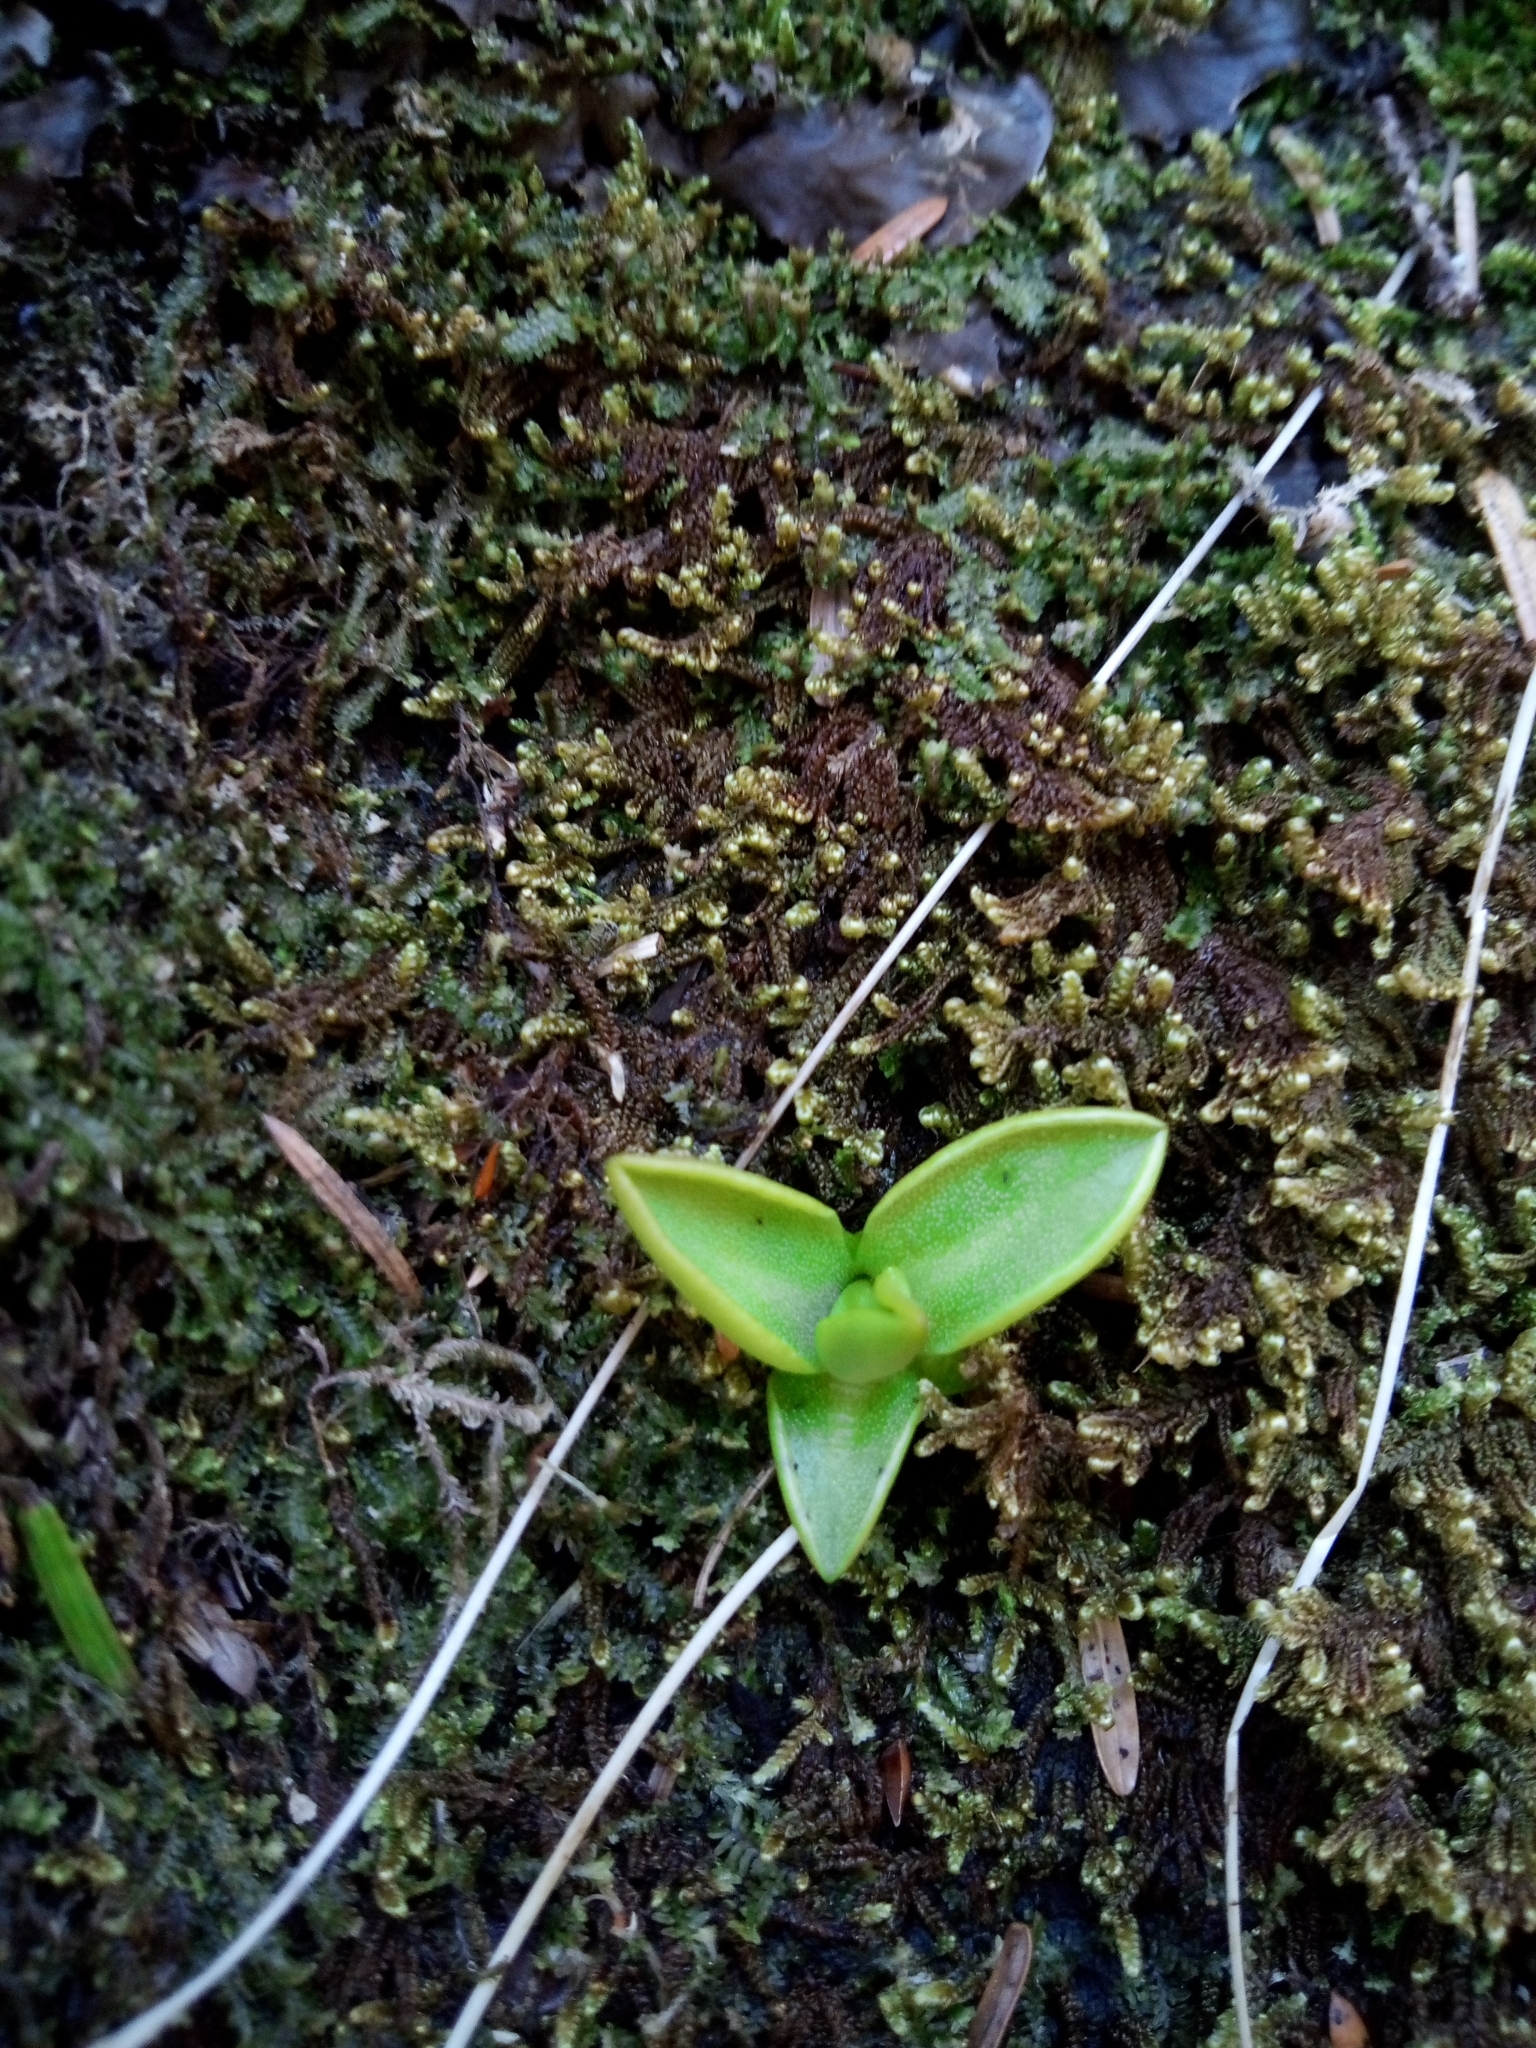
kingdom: Plantae
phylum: Tracheophyta
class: Magnoliopsida
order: Lamiales
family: Lentibulariaceae
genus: Pinguicula
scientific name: Pinguicula vulgaris
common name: Common butterwort
